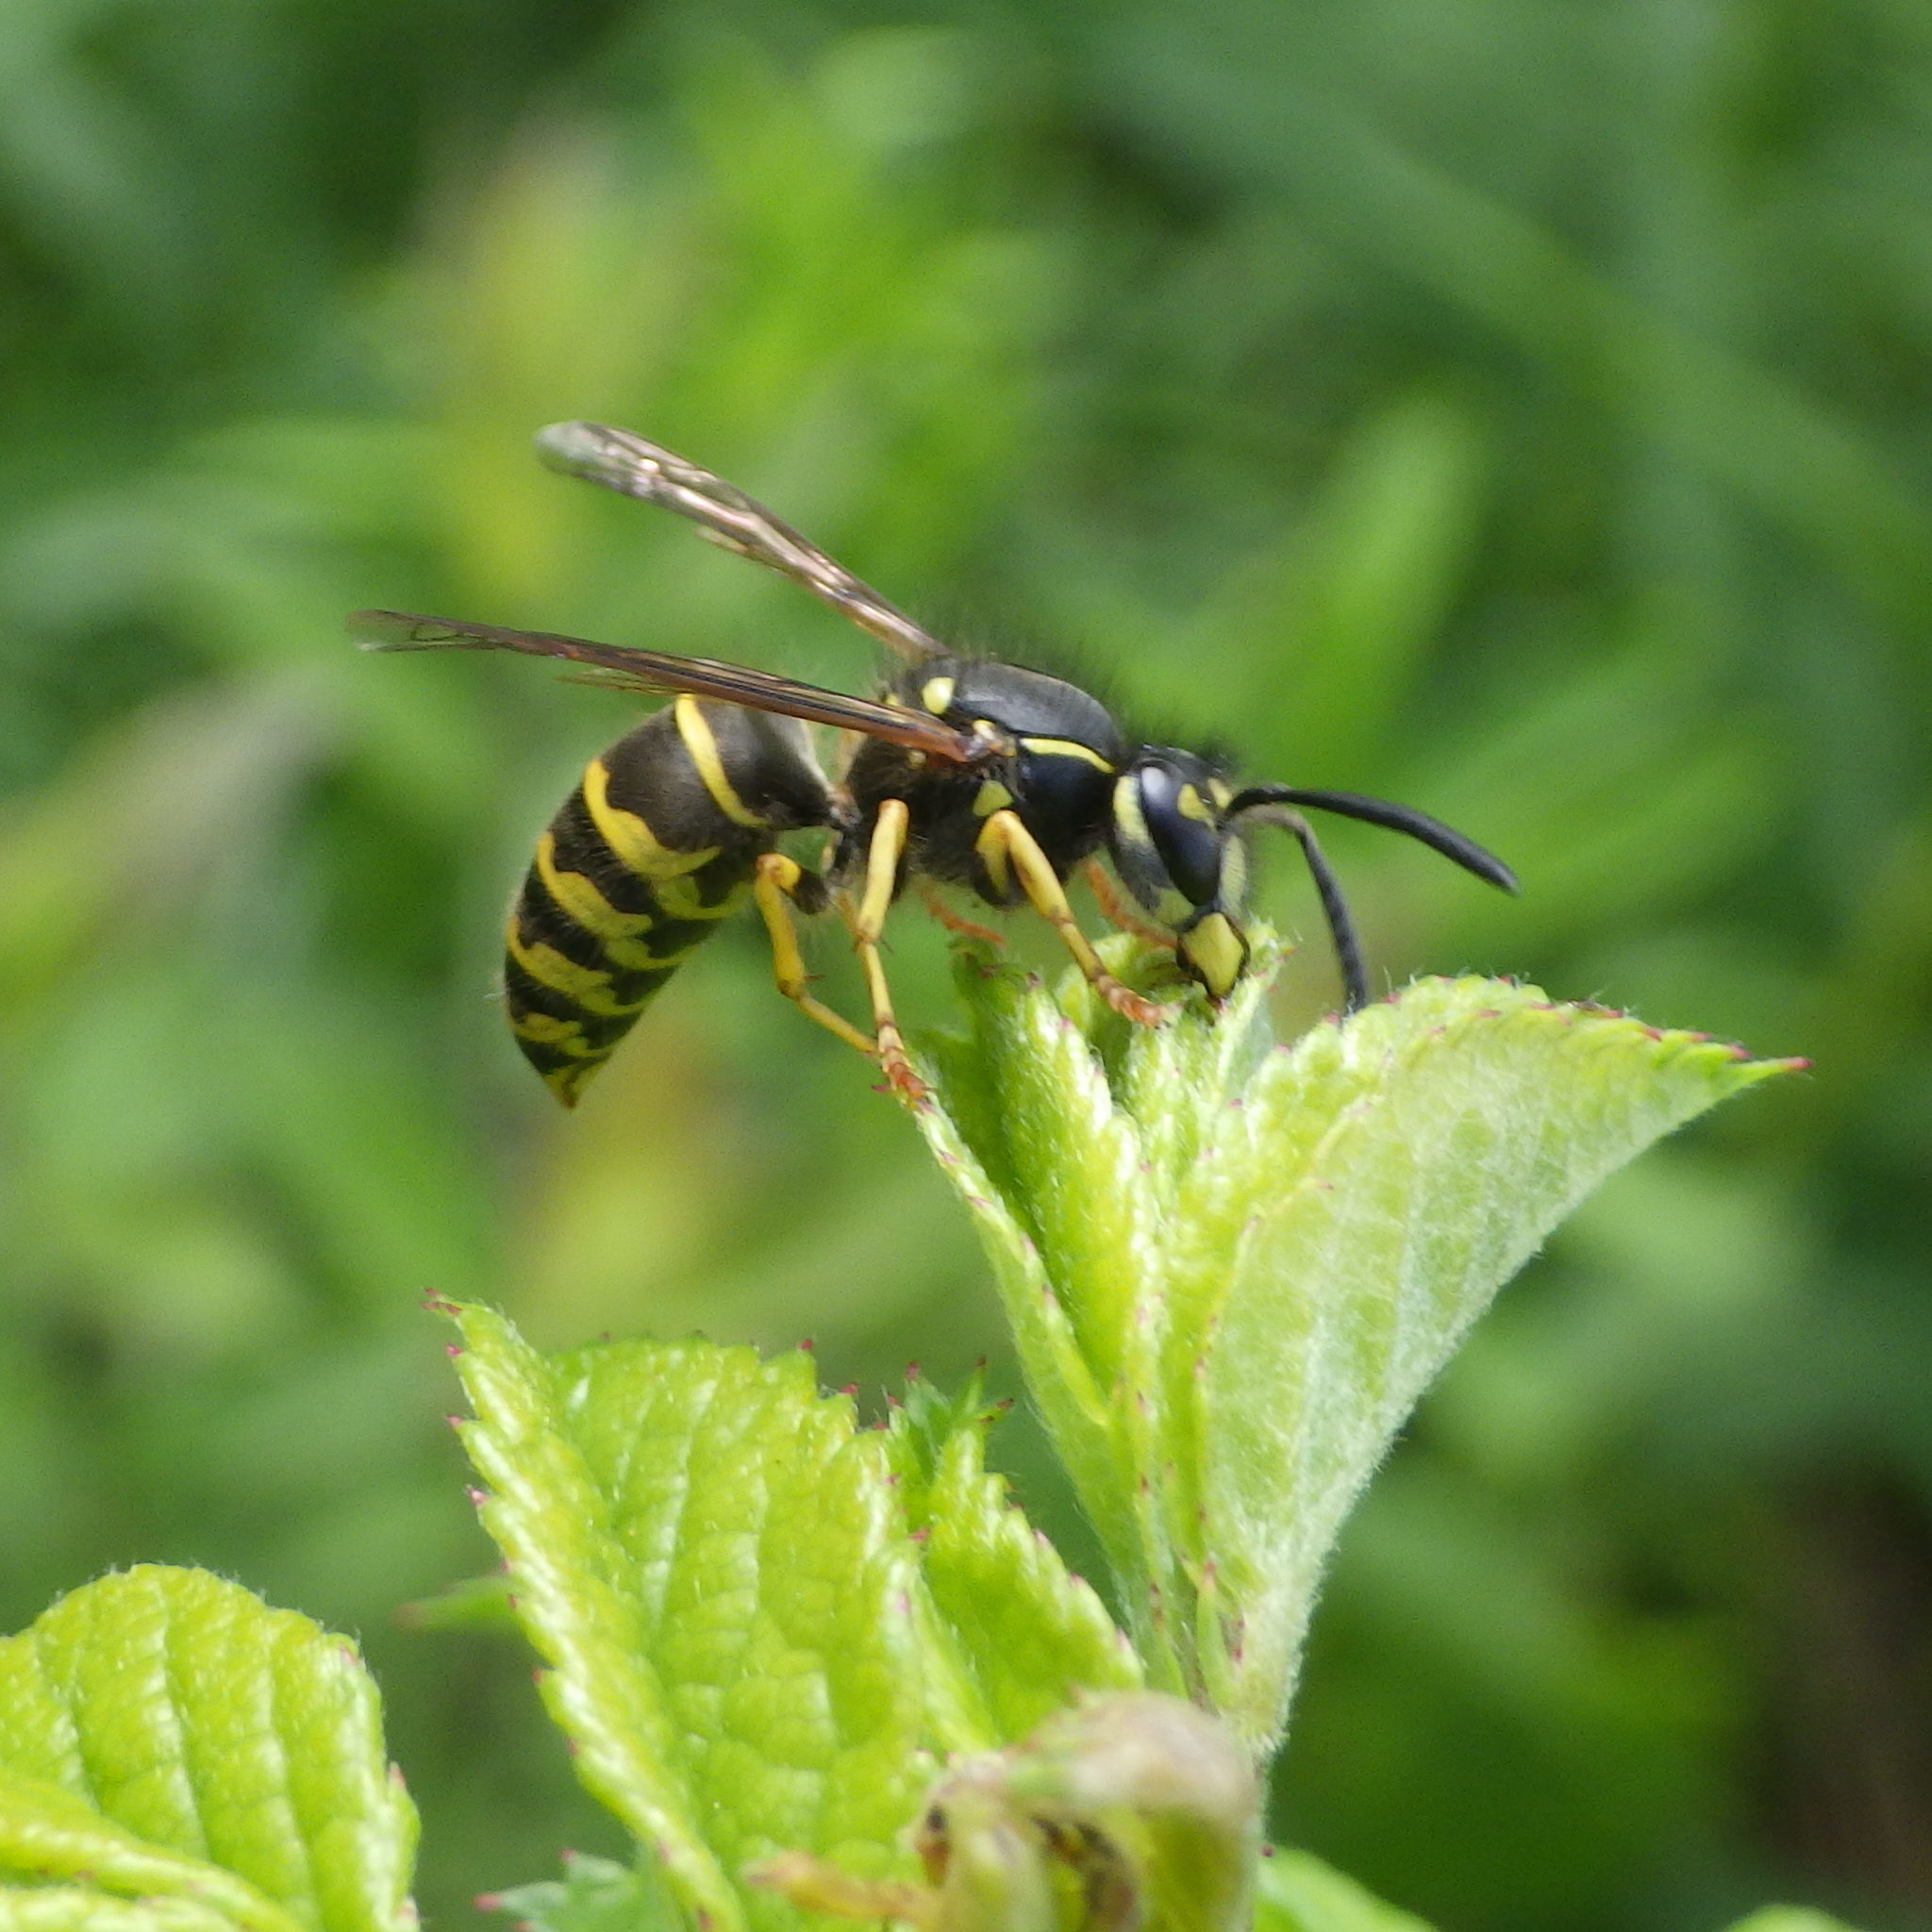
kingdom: Animalia
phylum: Arthropoda
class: Insecta
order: Hymenoptera
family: Vespidae
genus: Vespula
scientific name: Vespula alascensis
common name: Alaska yellowjacket
